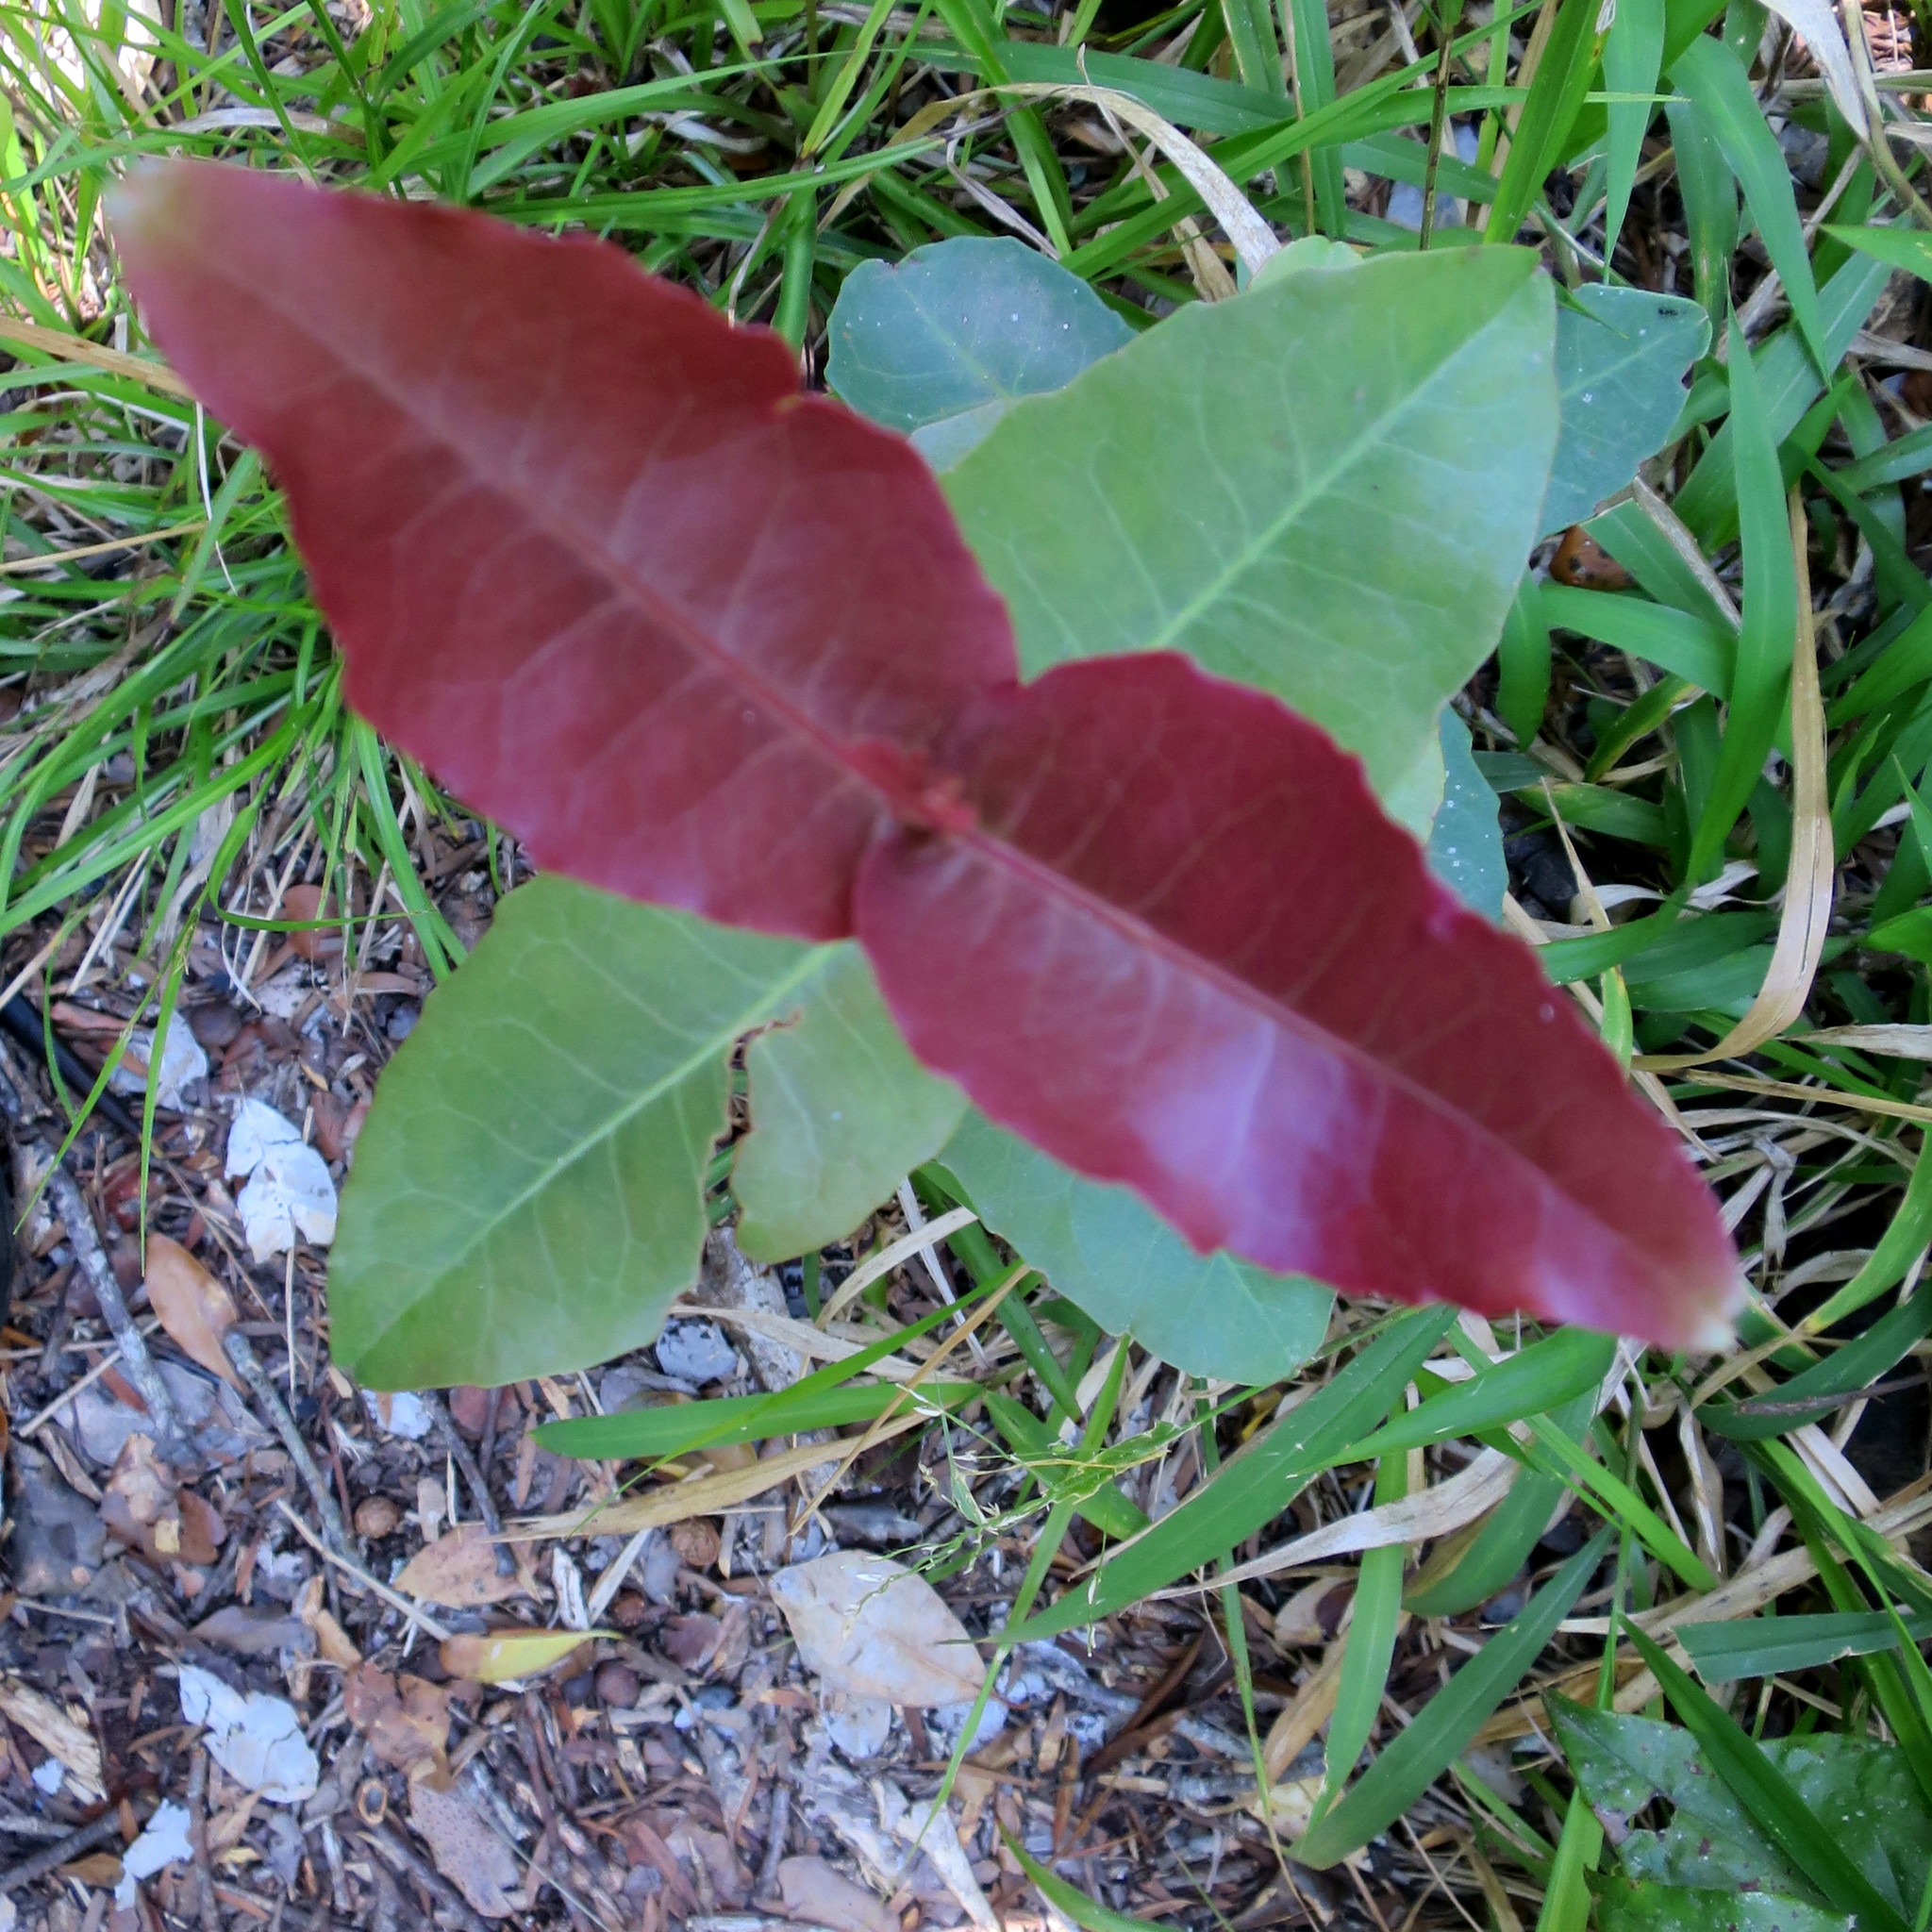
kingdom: Plantae
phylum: Tracheophyta
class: Magnoliopsida
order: Celastrales
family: Celastraceae
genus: Lauridia
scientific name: Lauridia tetragona
